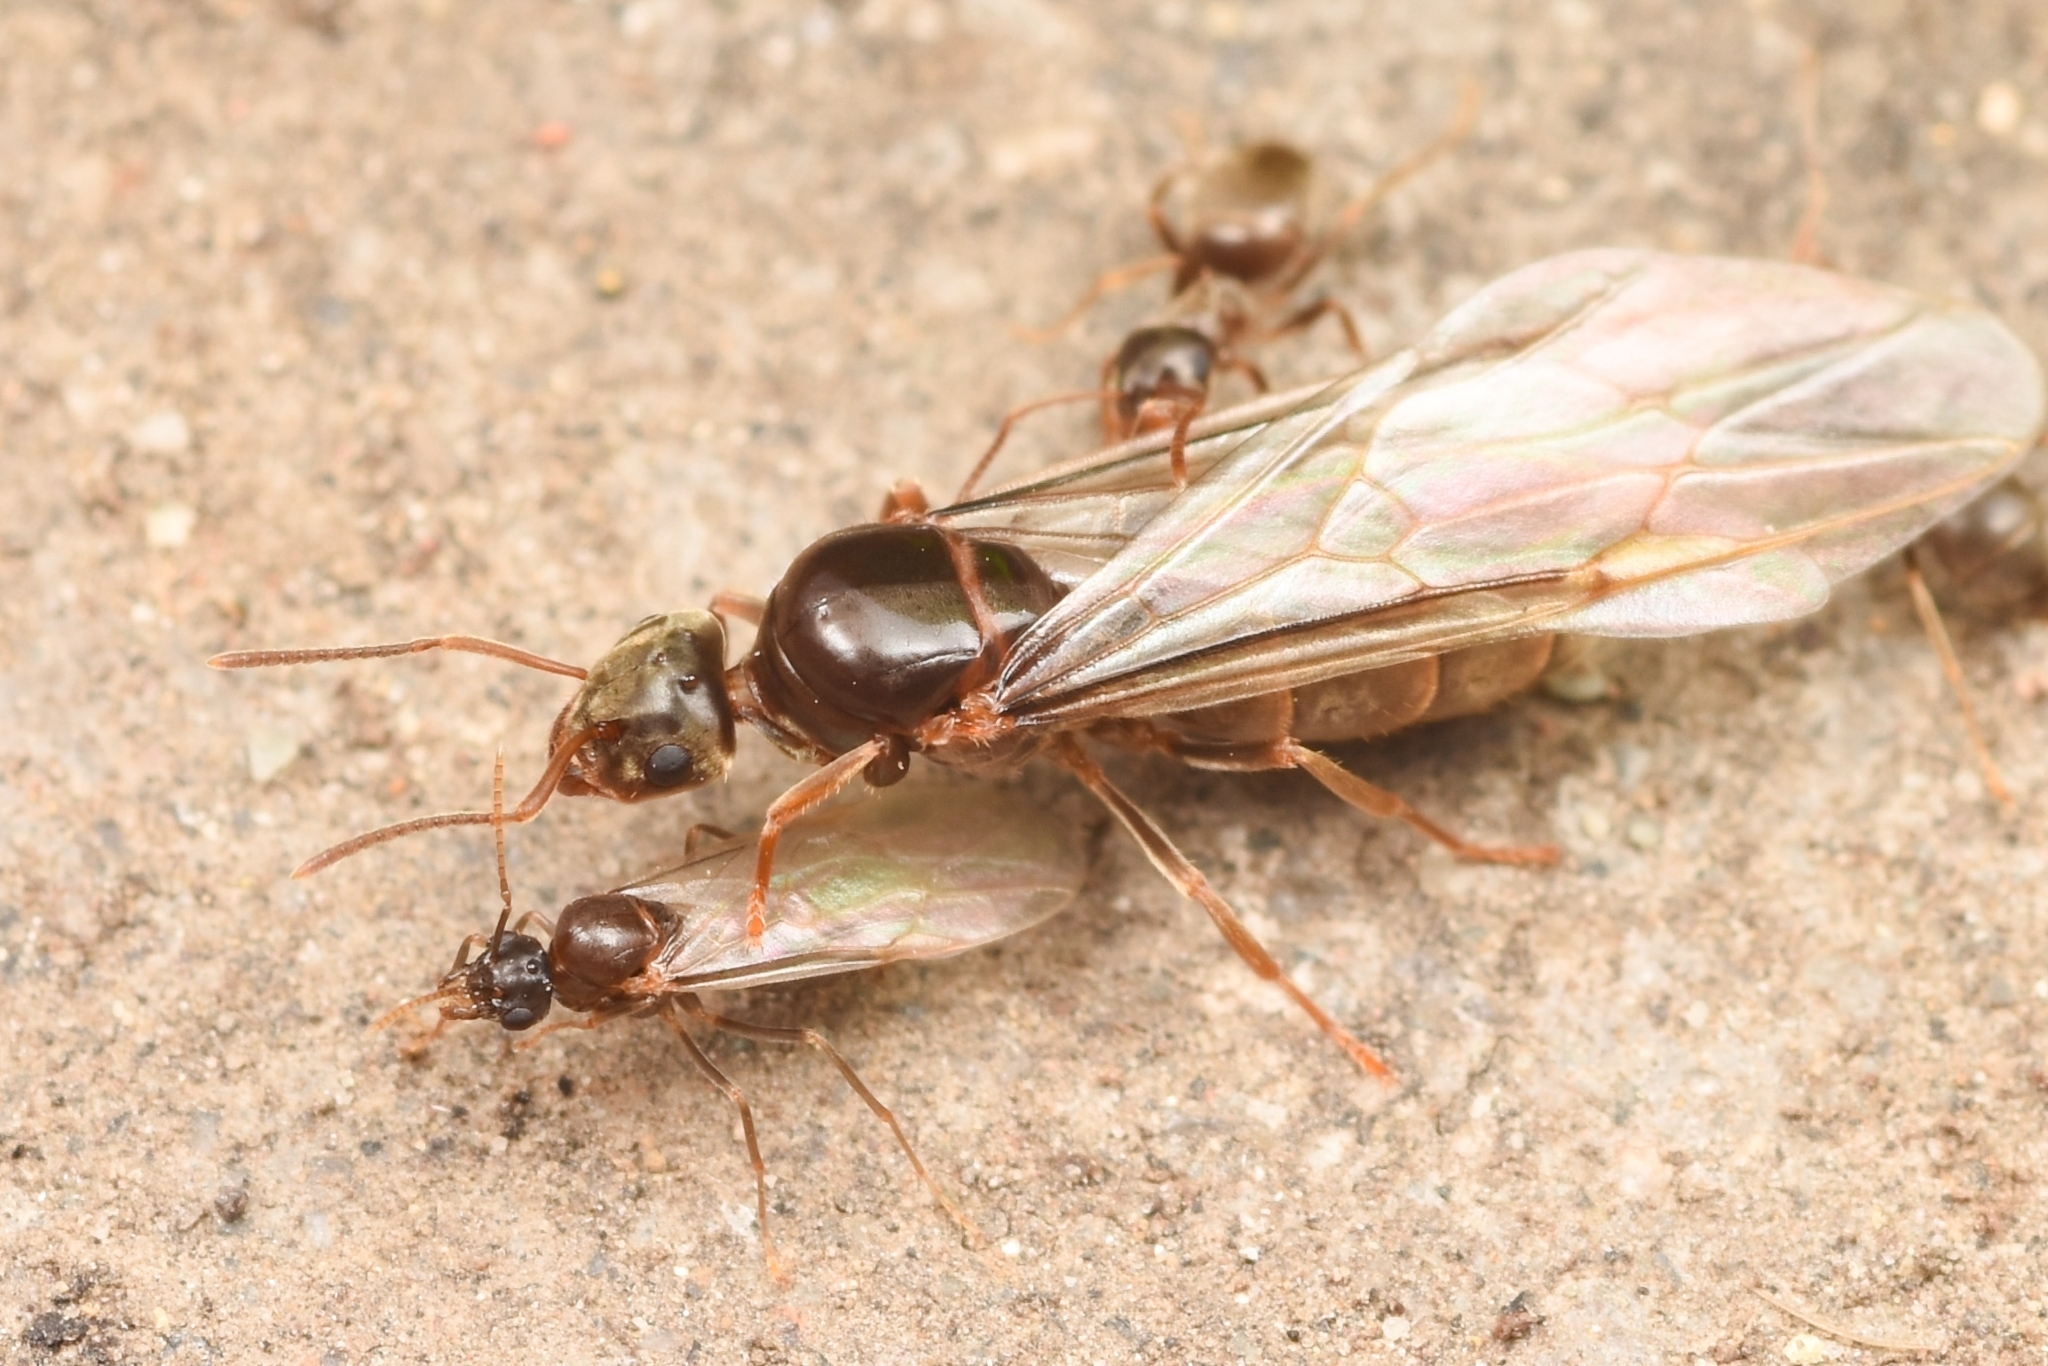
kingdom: Animalia
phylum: Arthropoda
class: Insecta
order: Hymenoptera
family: Formicidae
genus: Lasius
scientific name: Lasius
